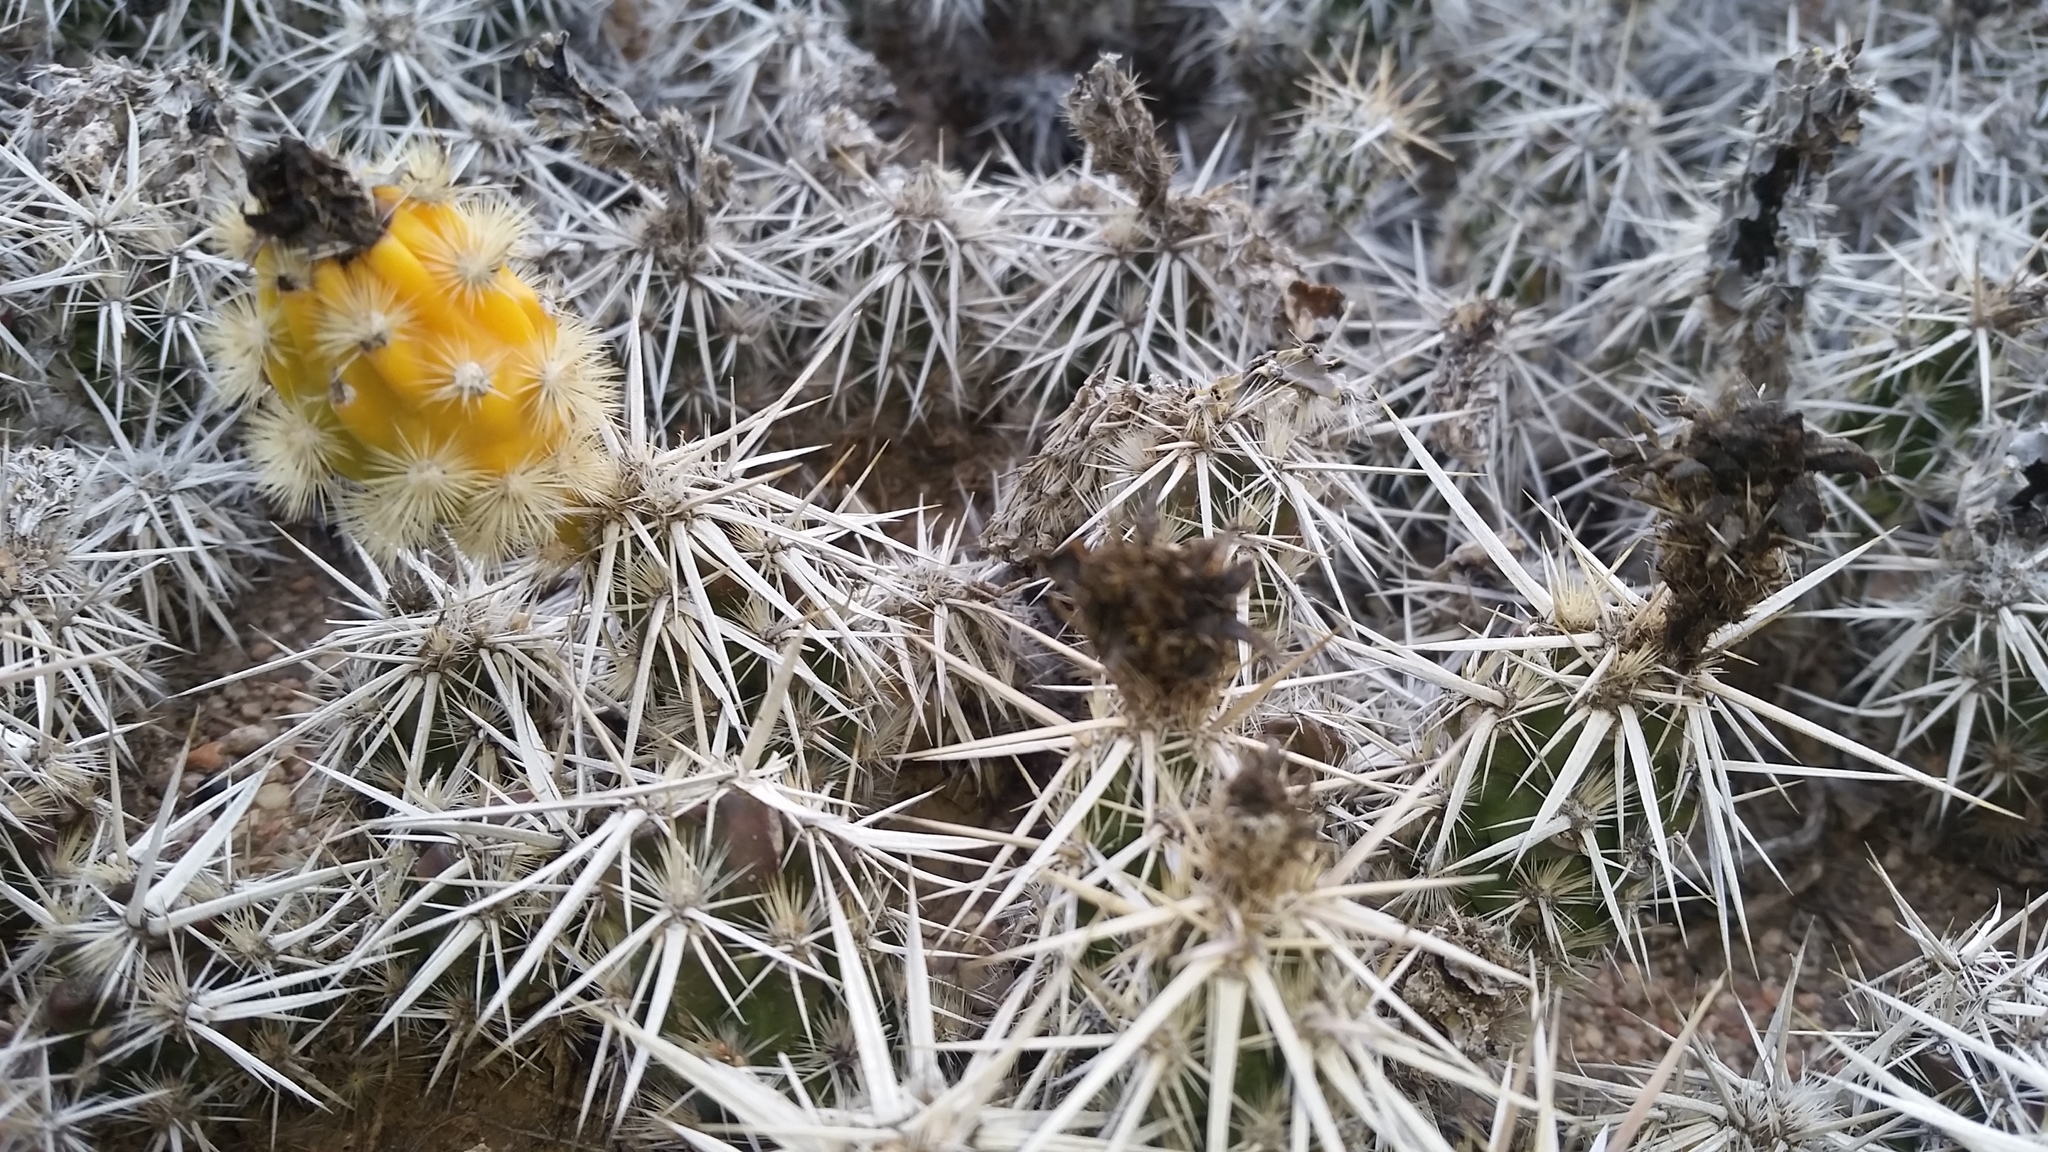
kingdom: Plantae
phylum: Tracheophyta
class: Magnoliopsida
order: Caryophyllales
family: Cactaceae
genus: Grusonia
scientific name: Grusonia clavata
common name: Club cholla
